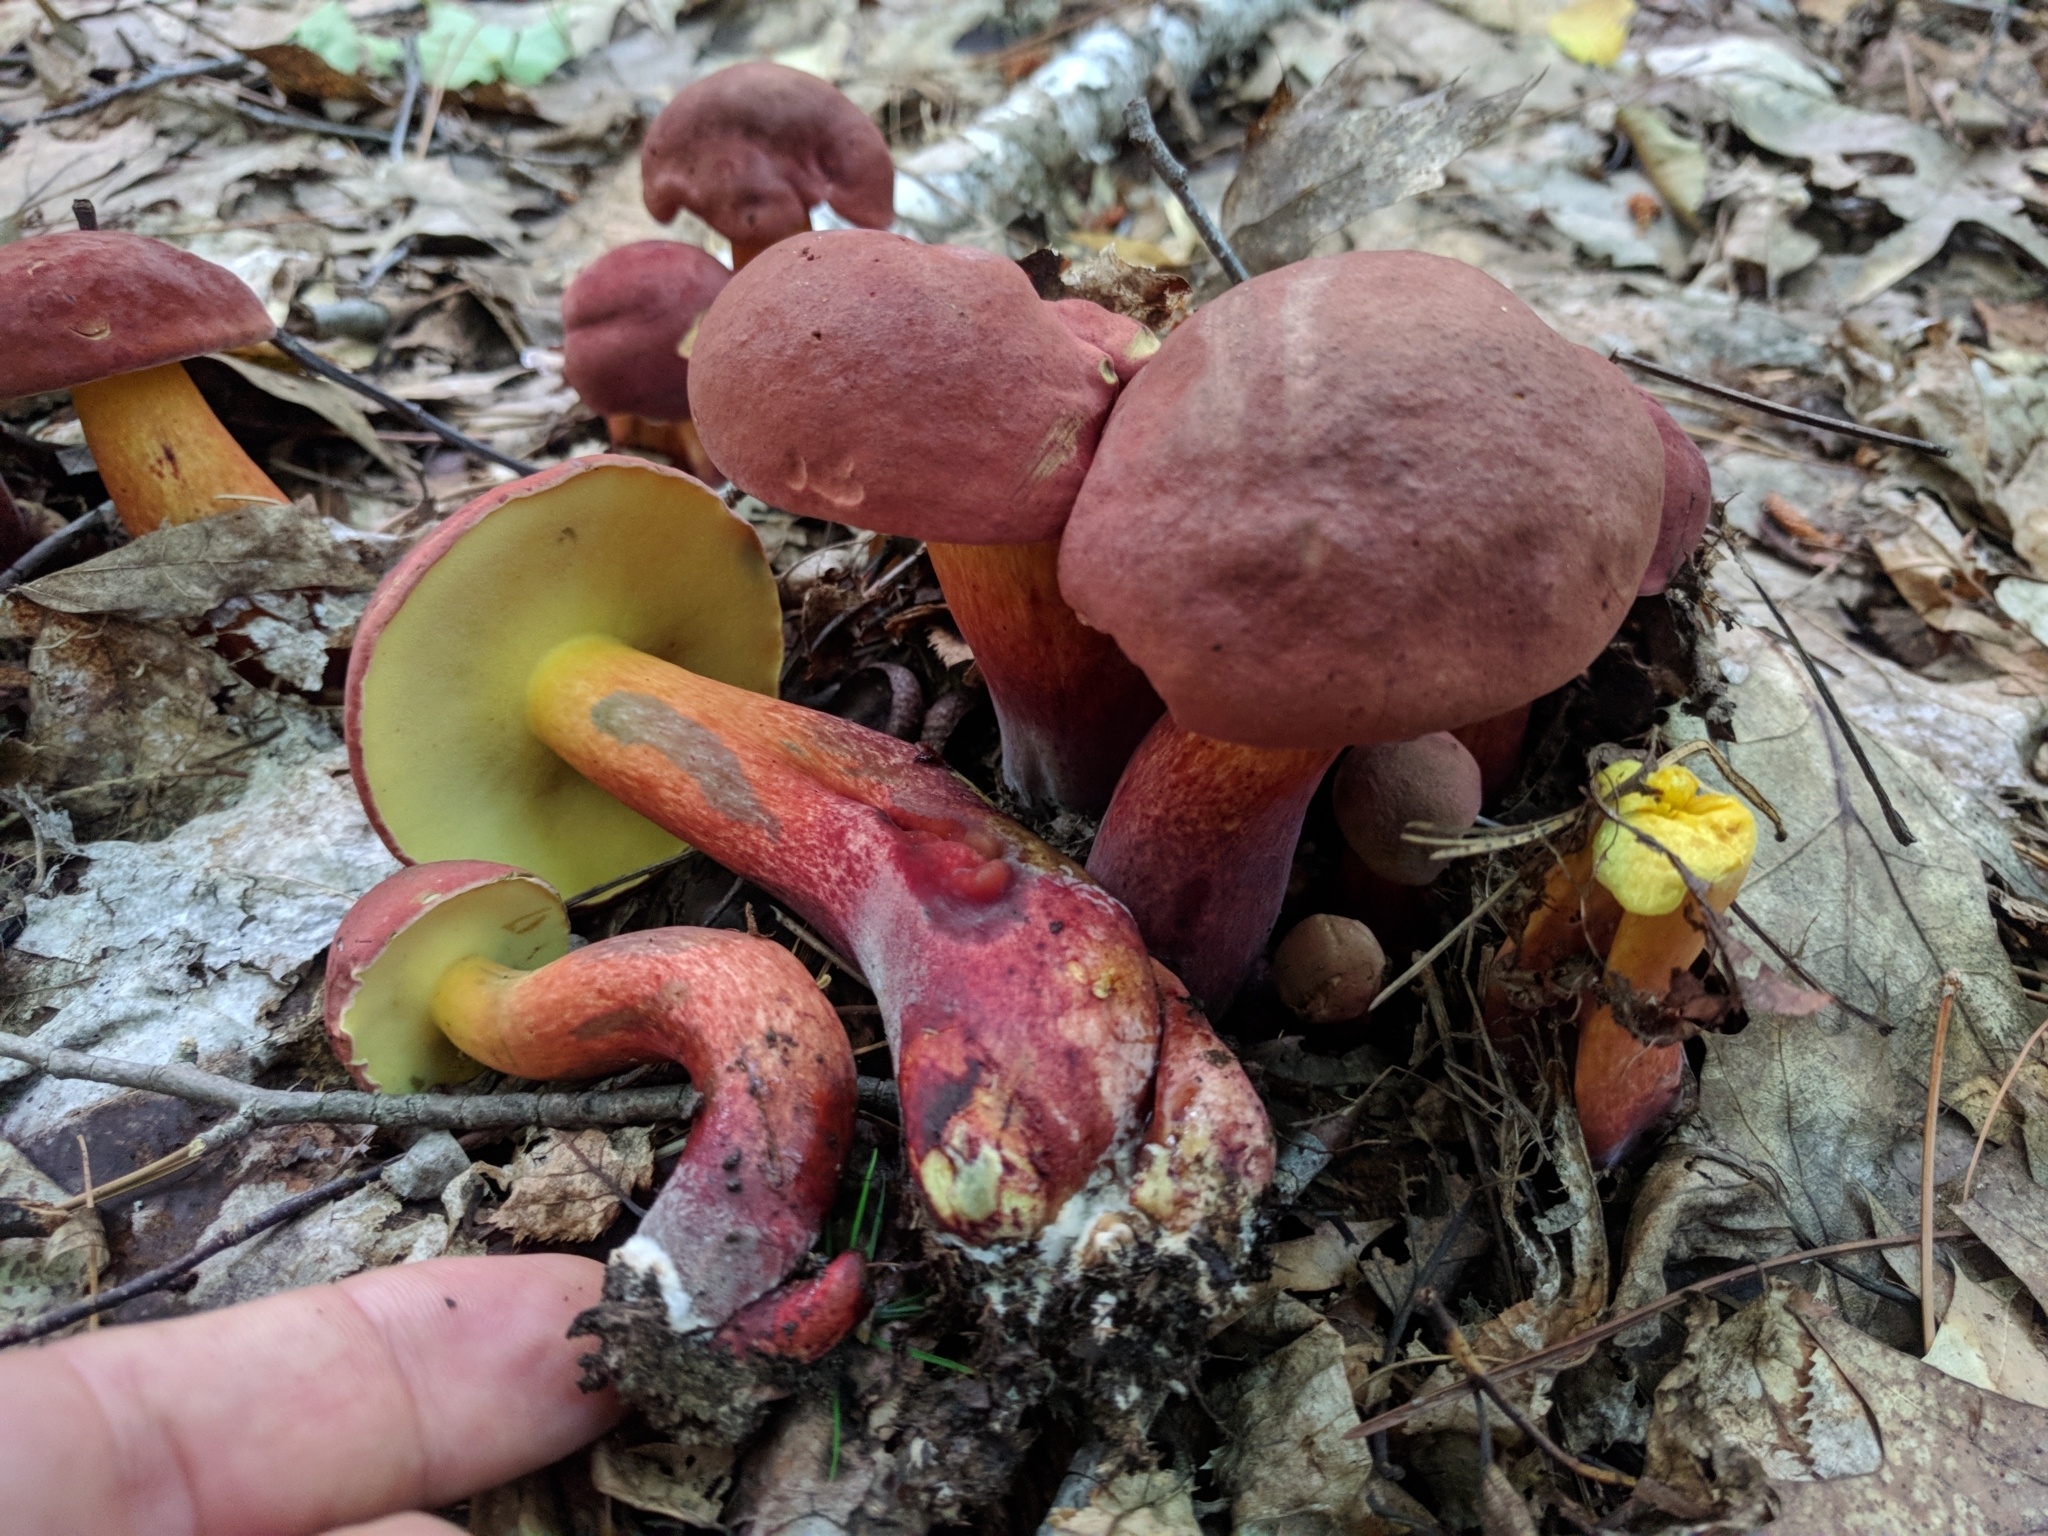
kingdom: Fungi
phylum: Basidiomycota
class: Agaricomycetes
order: Boletales
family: Boletaceae
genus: Baorangia
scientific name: Baorangia bicolor
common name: Two-colored bolete
